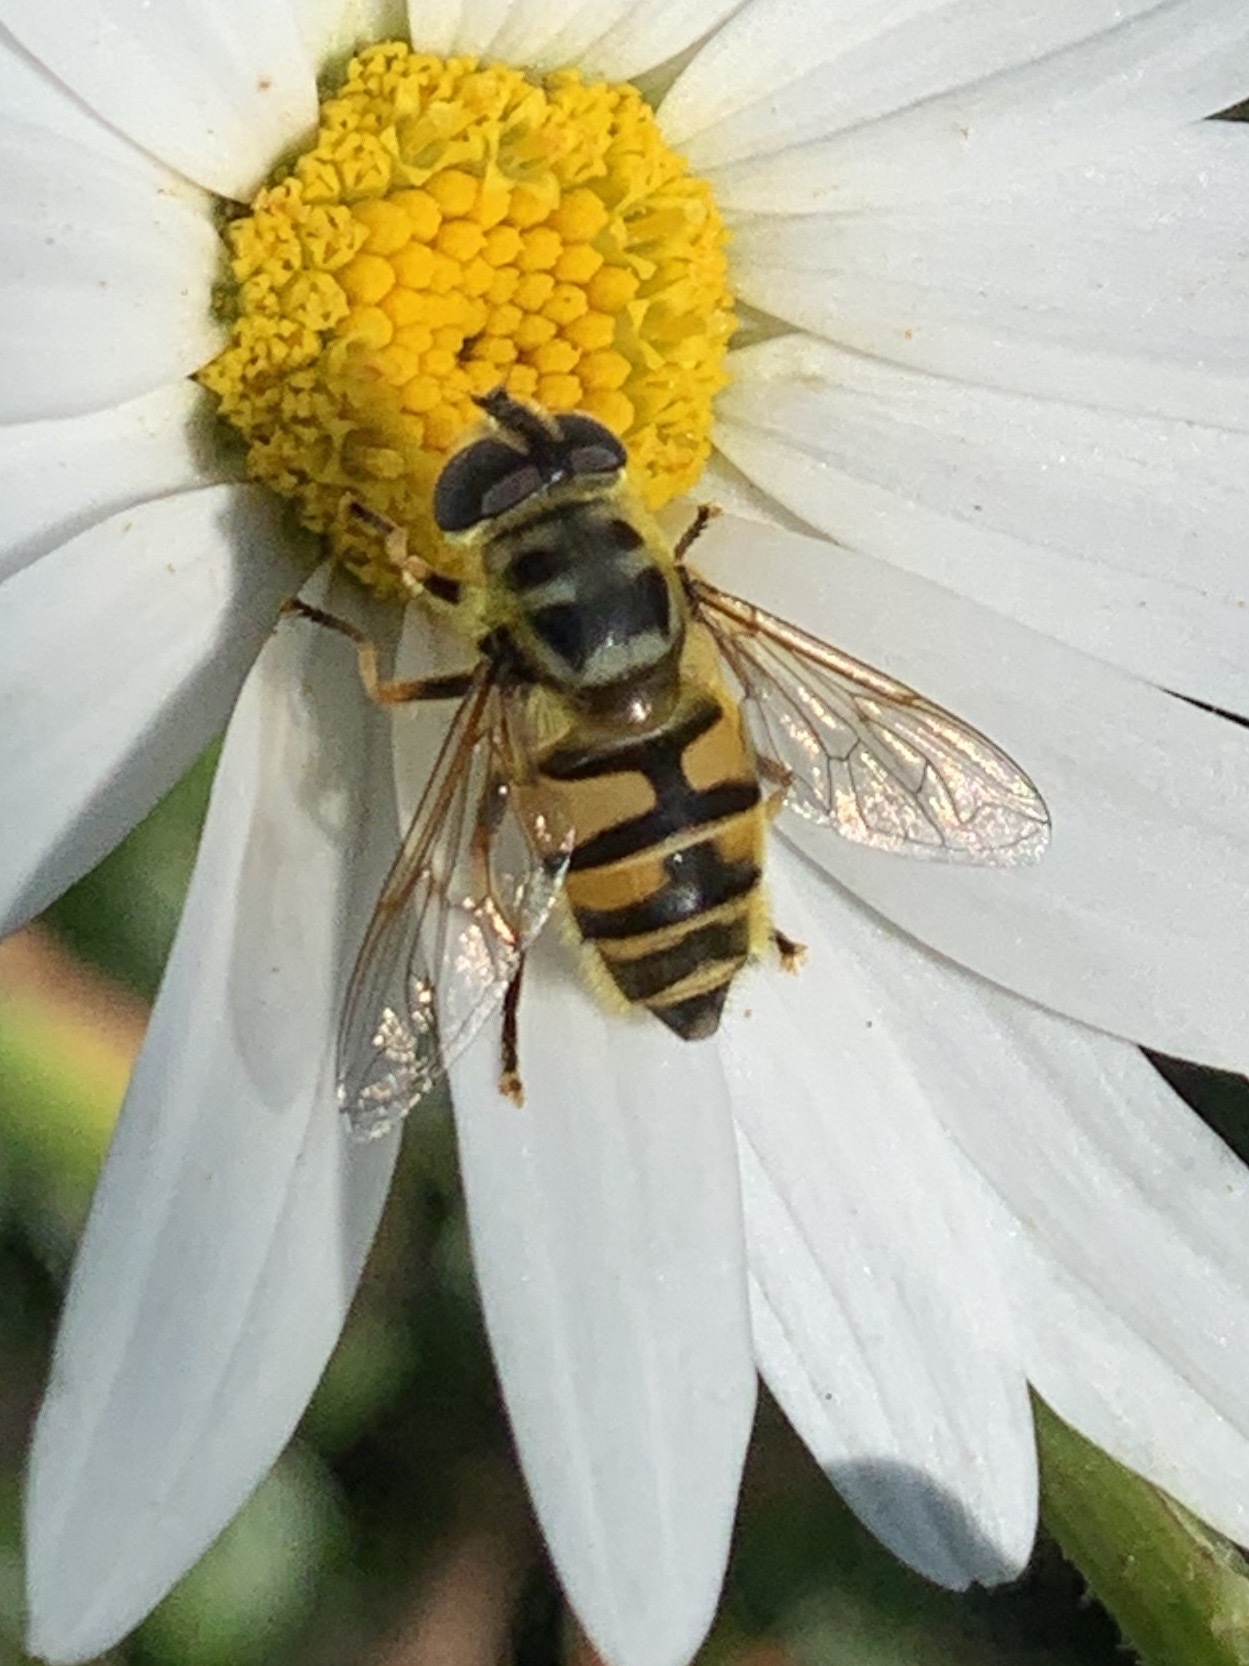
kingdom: Animalia
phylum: Arthropoda
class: Insecta
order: Diptera
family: Syrphidae
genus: Myathropa
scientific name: Myathropa florea
